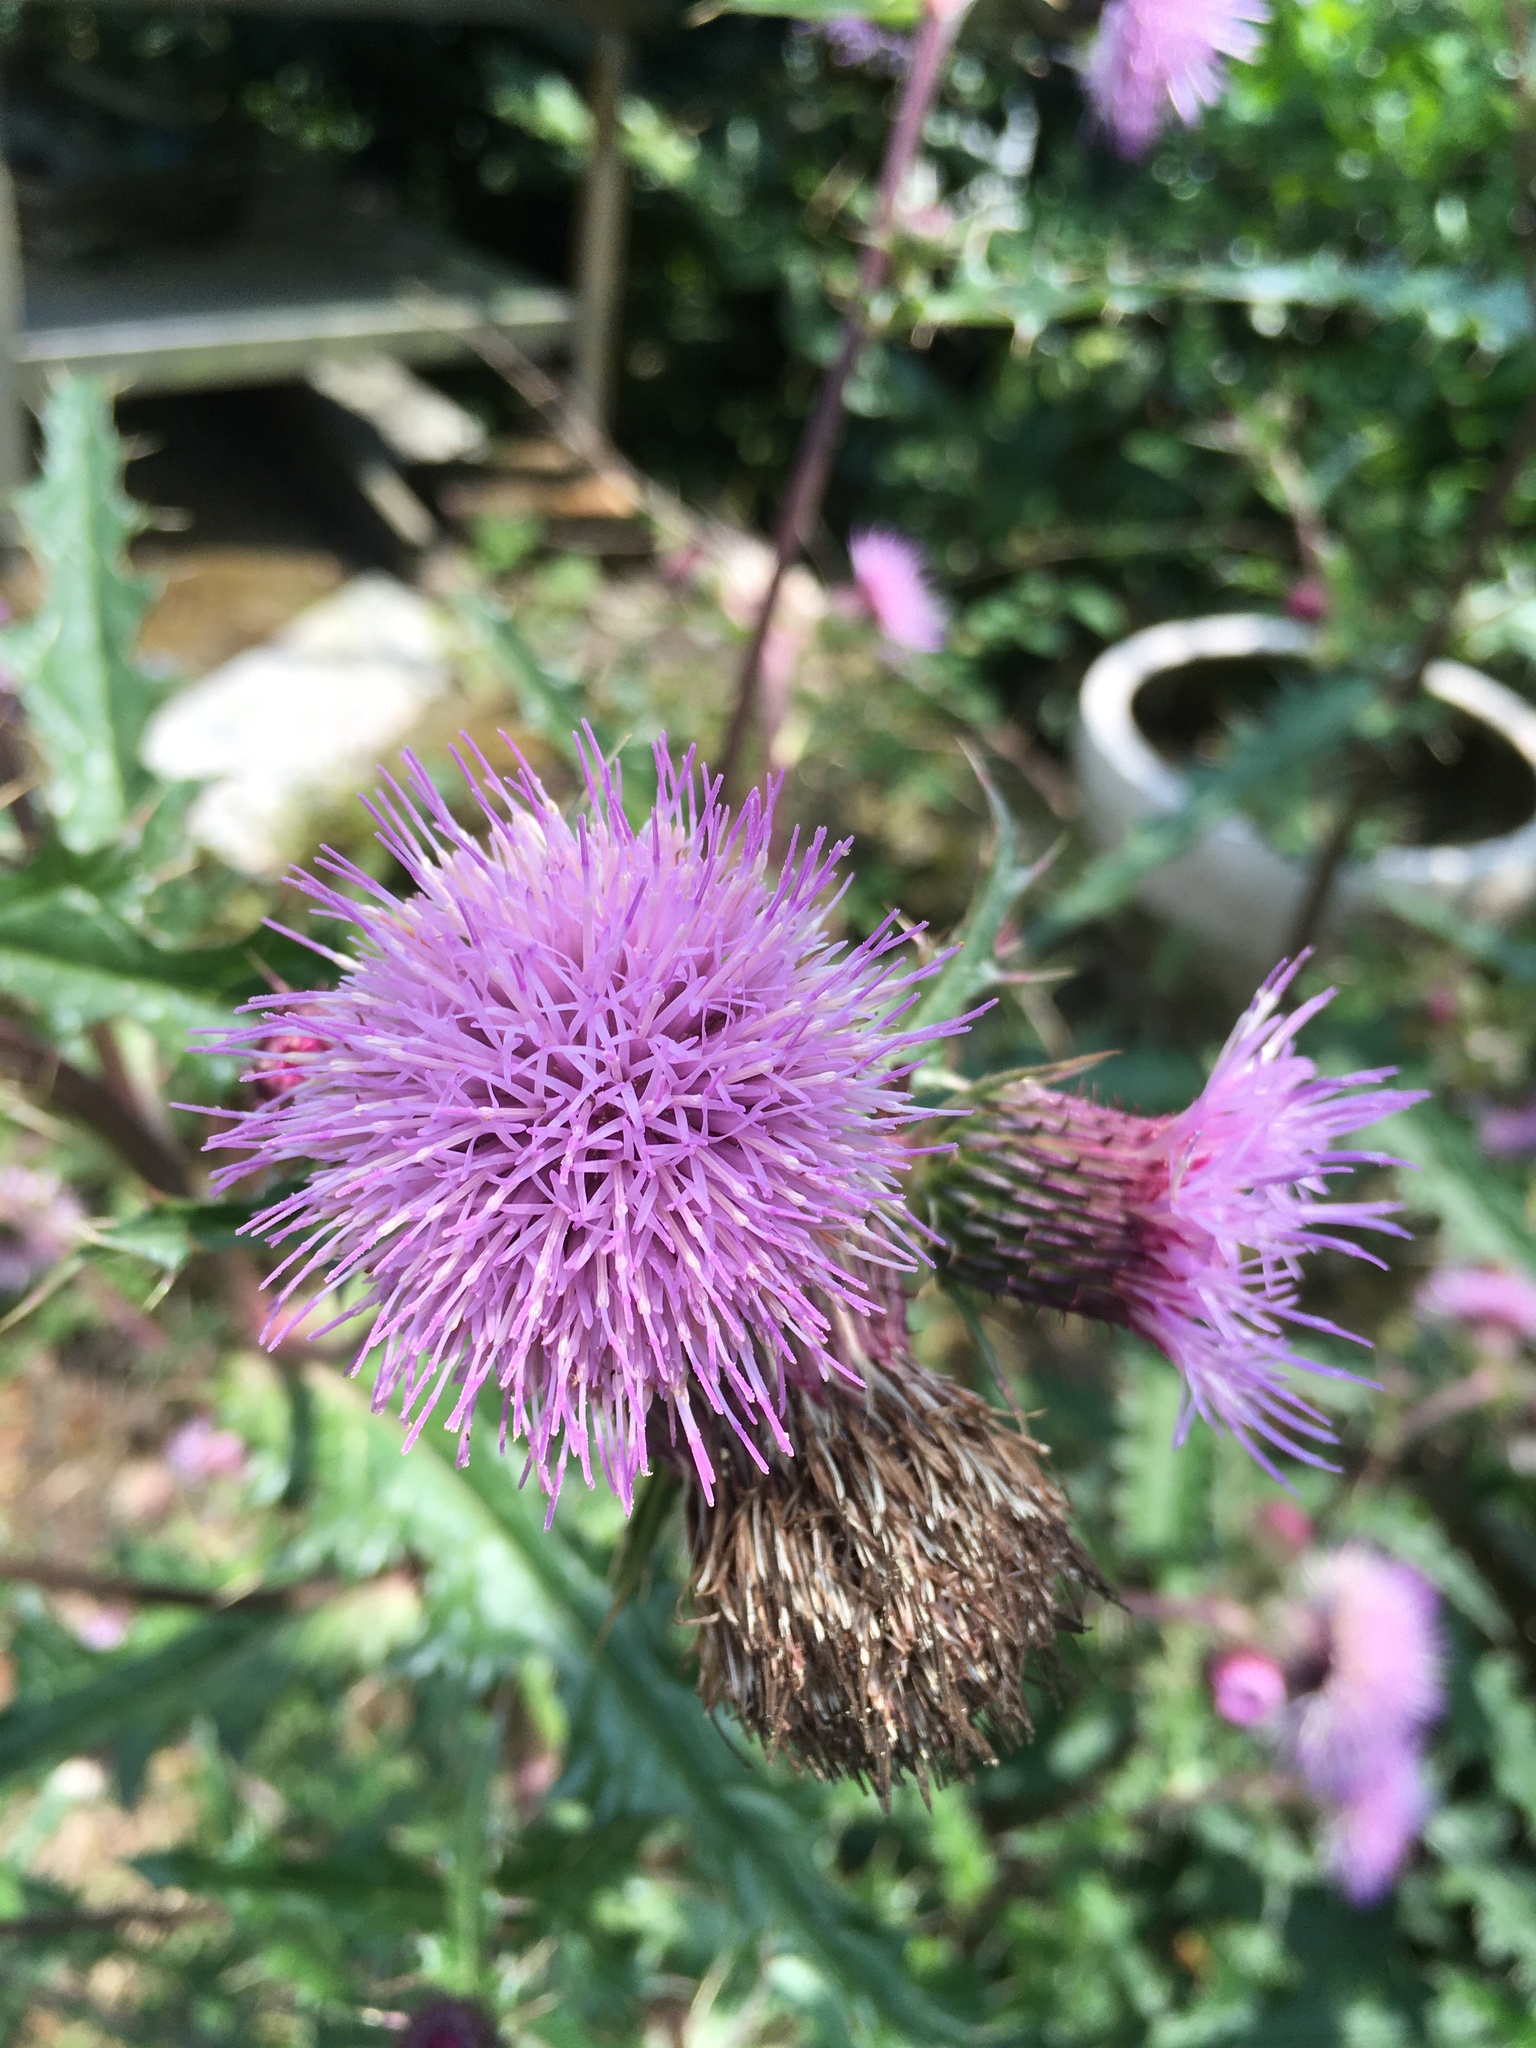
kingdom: Plantae
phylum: Tracheophyta
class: Magnoliopsida
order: Asterales
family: Asteraceae
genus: Cirsium
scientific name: Cirsium japonicum
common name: Japanese thistle
